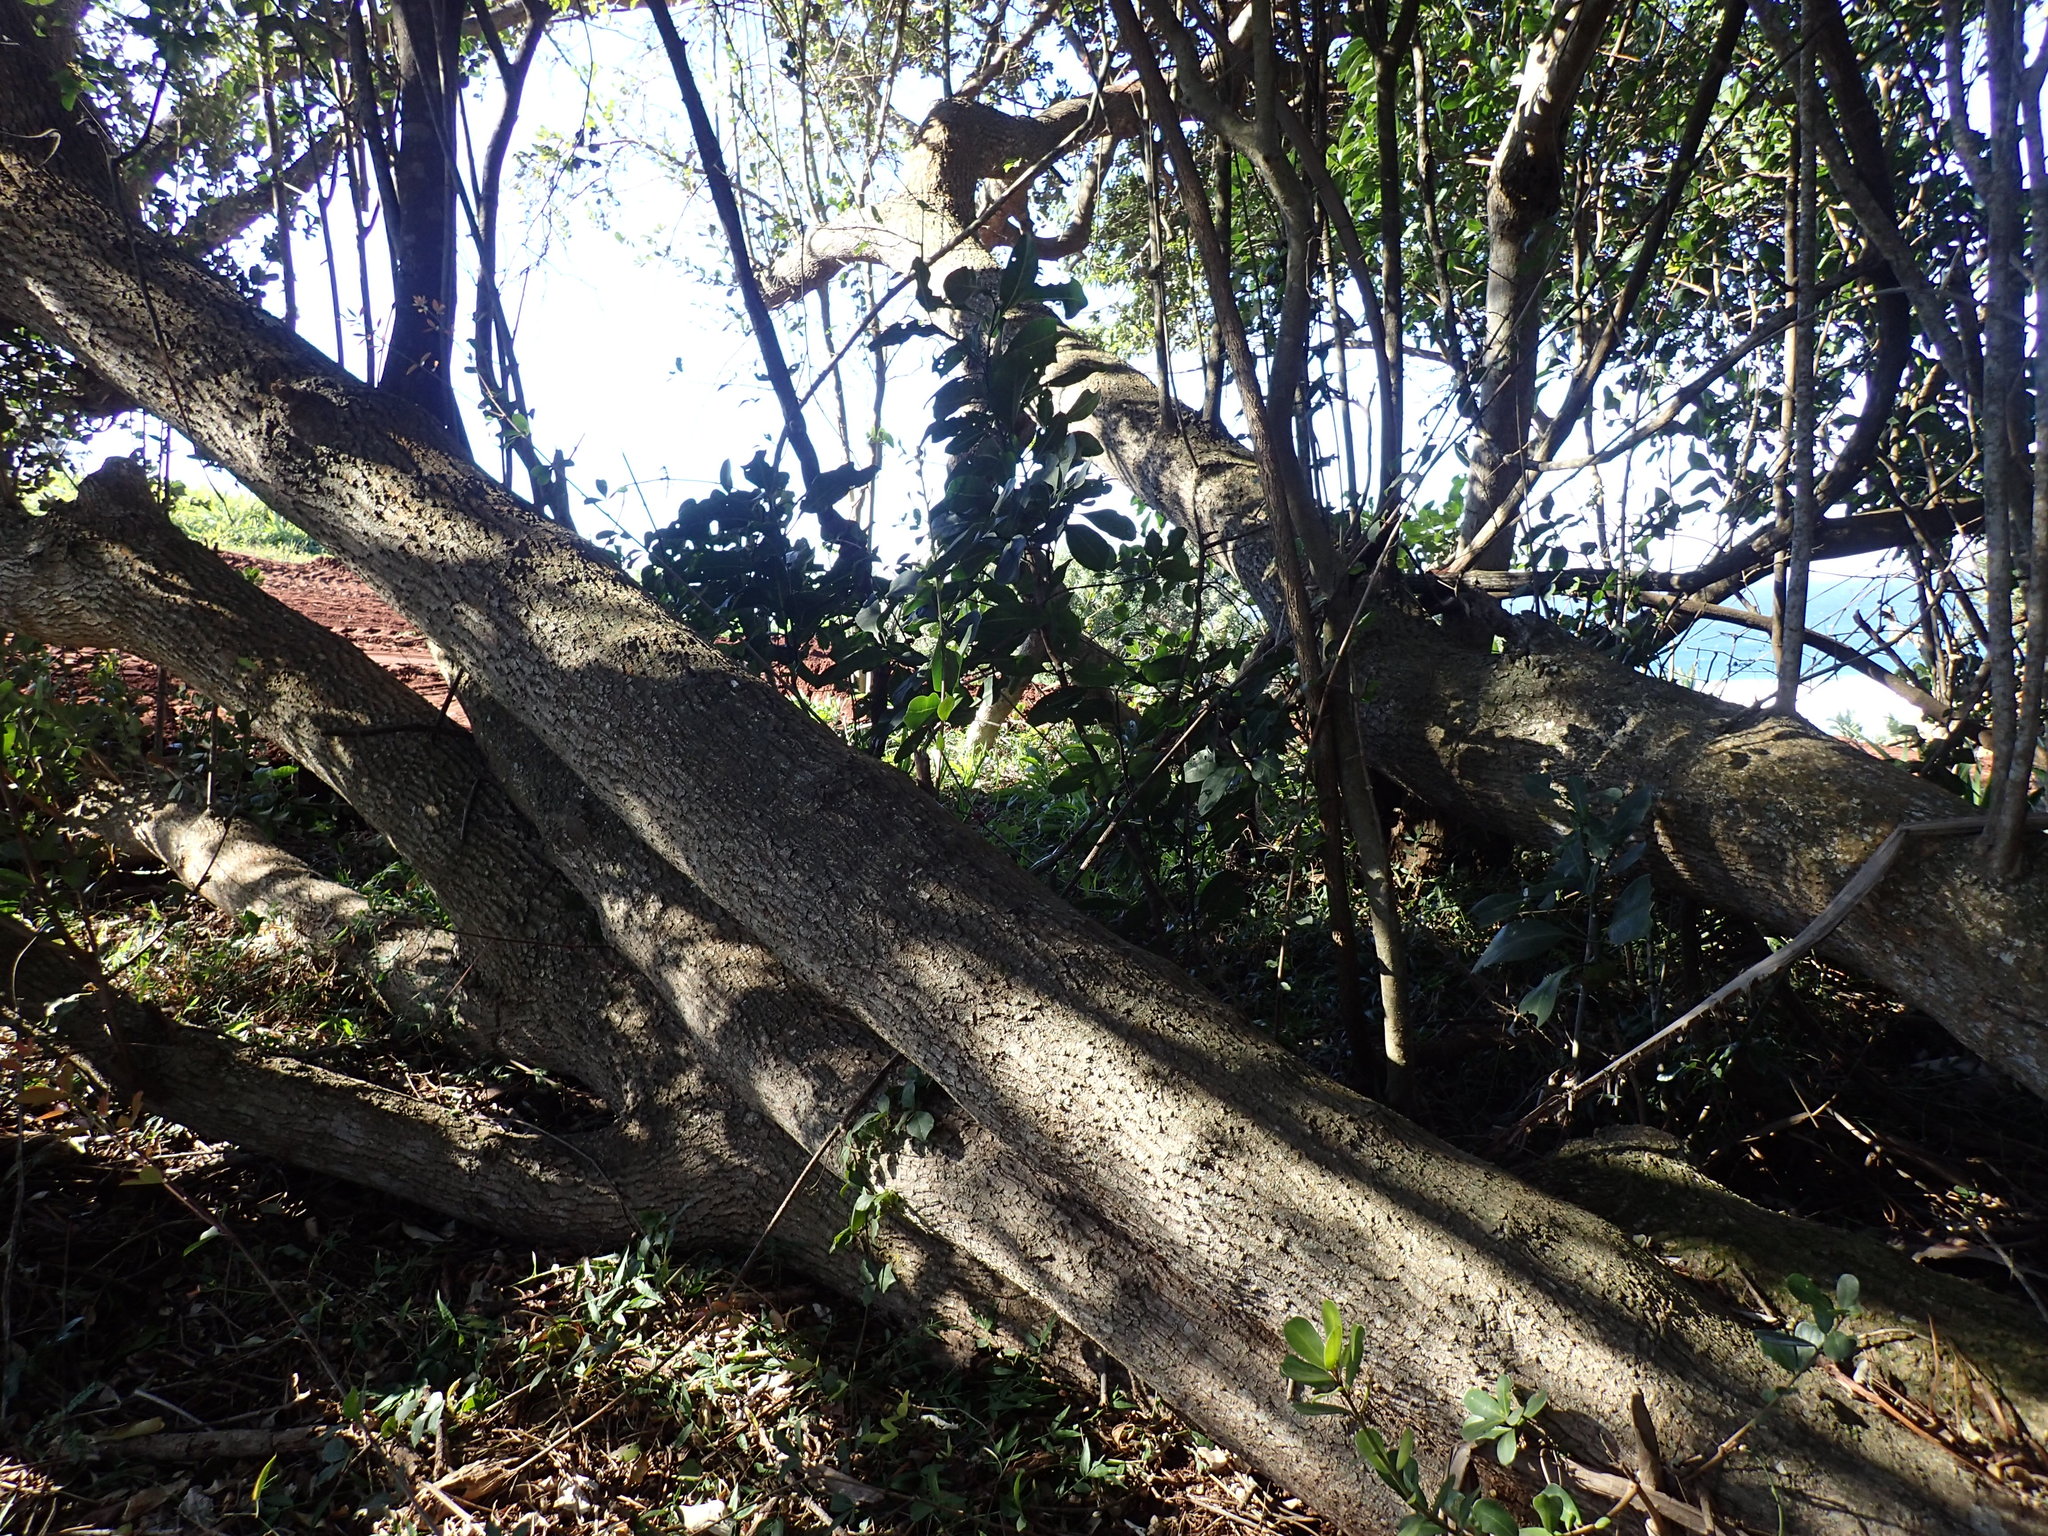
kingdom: Plantae
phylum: Tracheophyta
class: Magnoliopsida
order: Ericales
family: Sapotaceae
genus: Mimusops
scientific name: Mimusops caffra
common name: Coastal red milkwood
